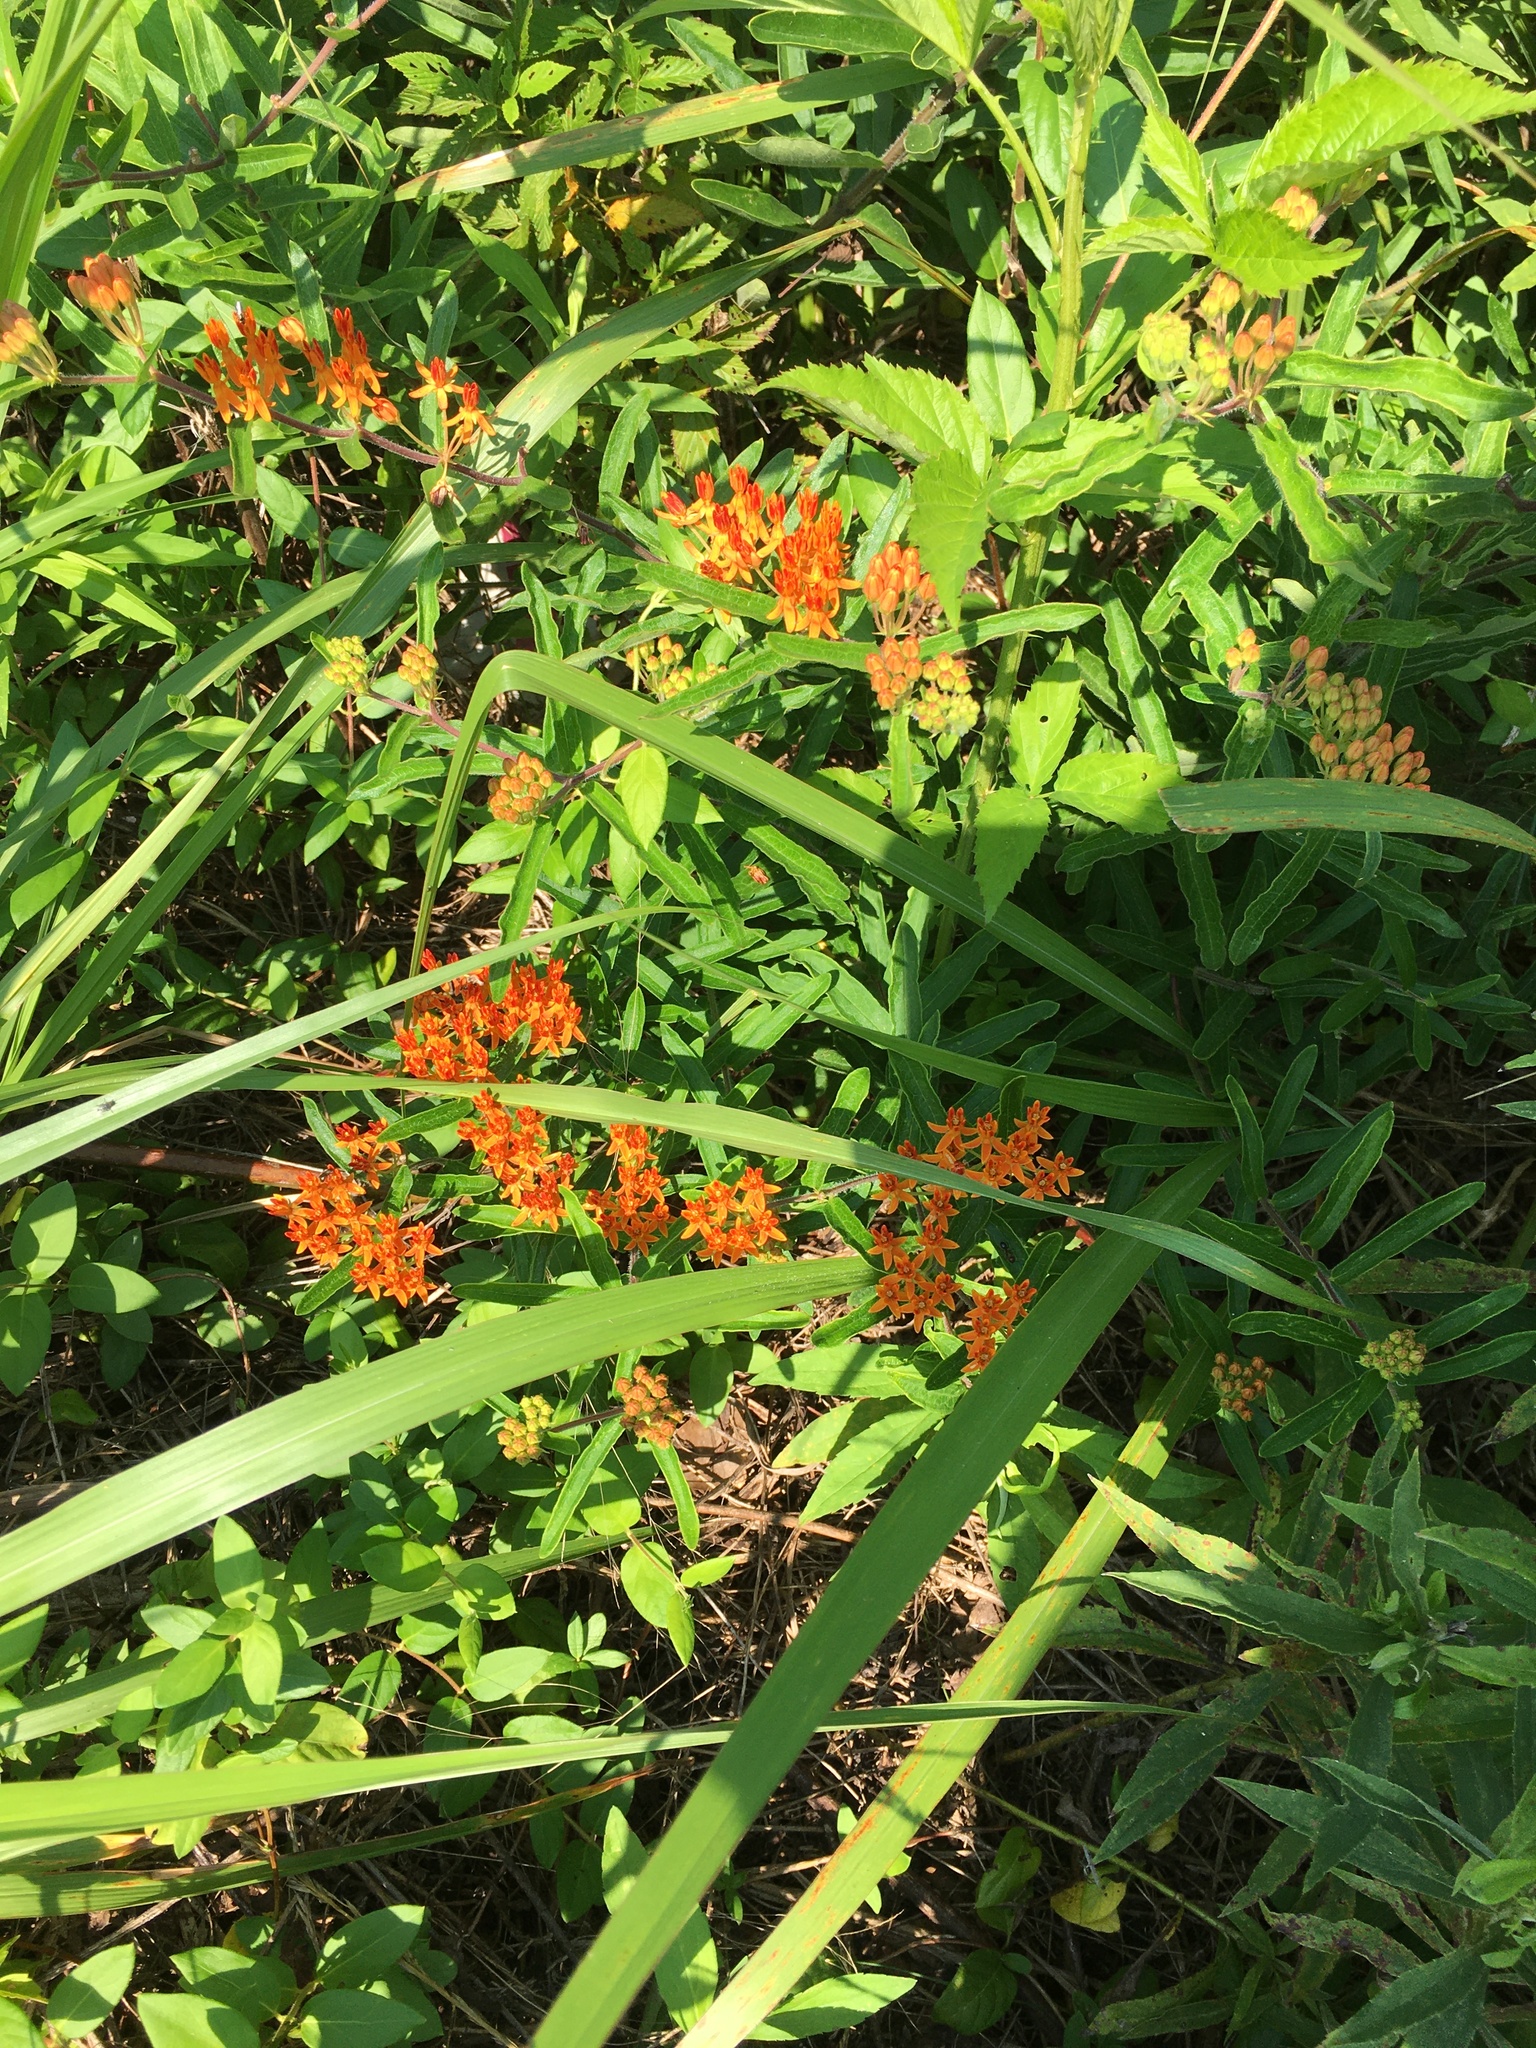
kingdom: Plantae
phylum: Tracheophyta
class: Magnoliopsida
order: Gentianales
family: Apocynaceae
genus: Asclepias
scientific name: Asclepias tuberosa
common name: Butterfly milkweed
